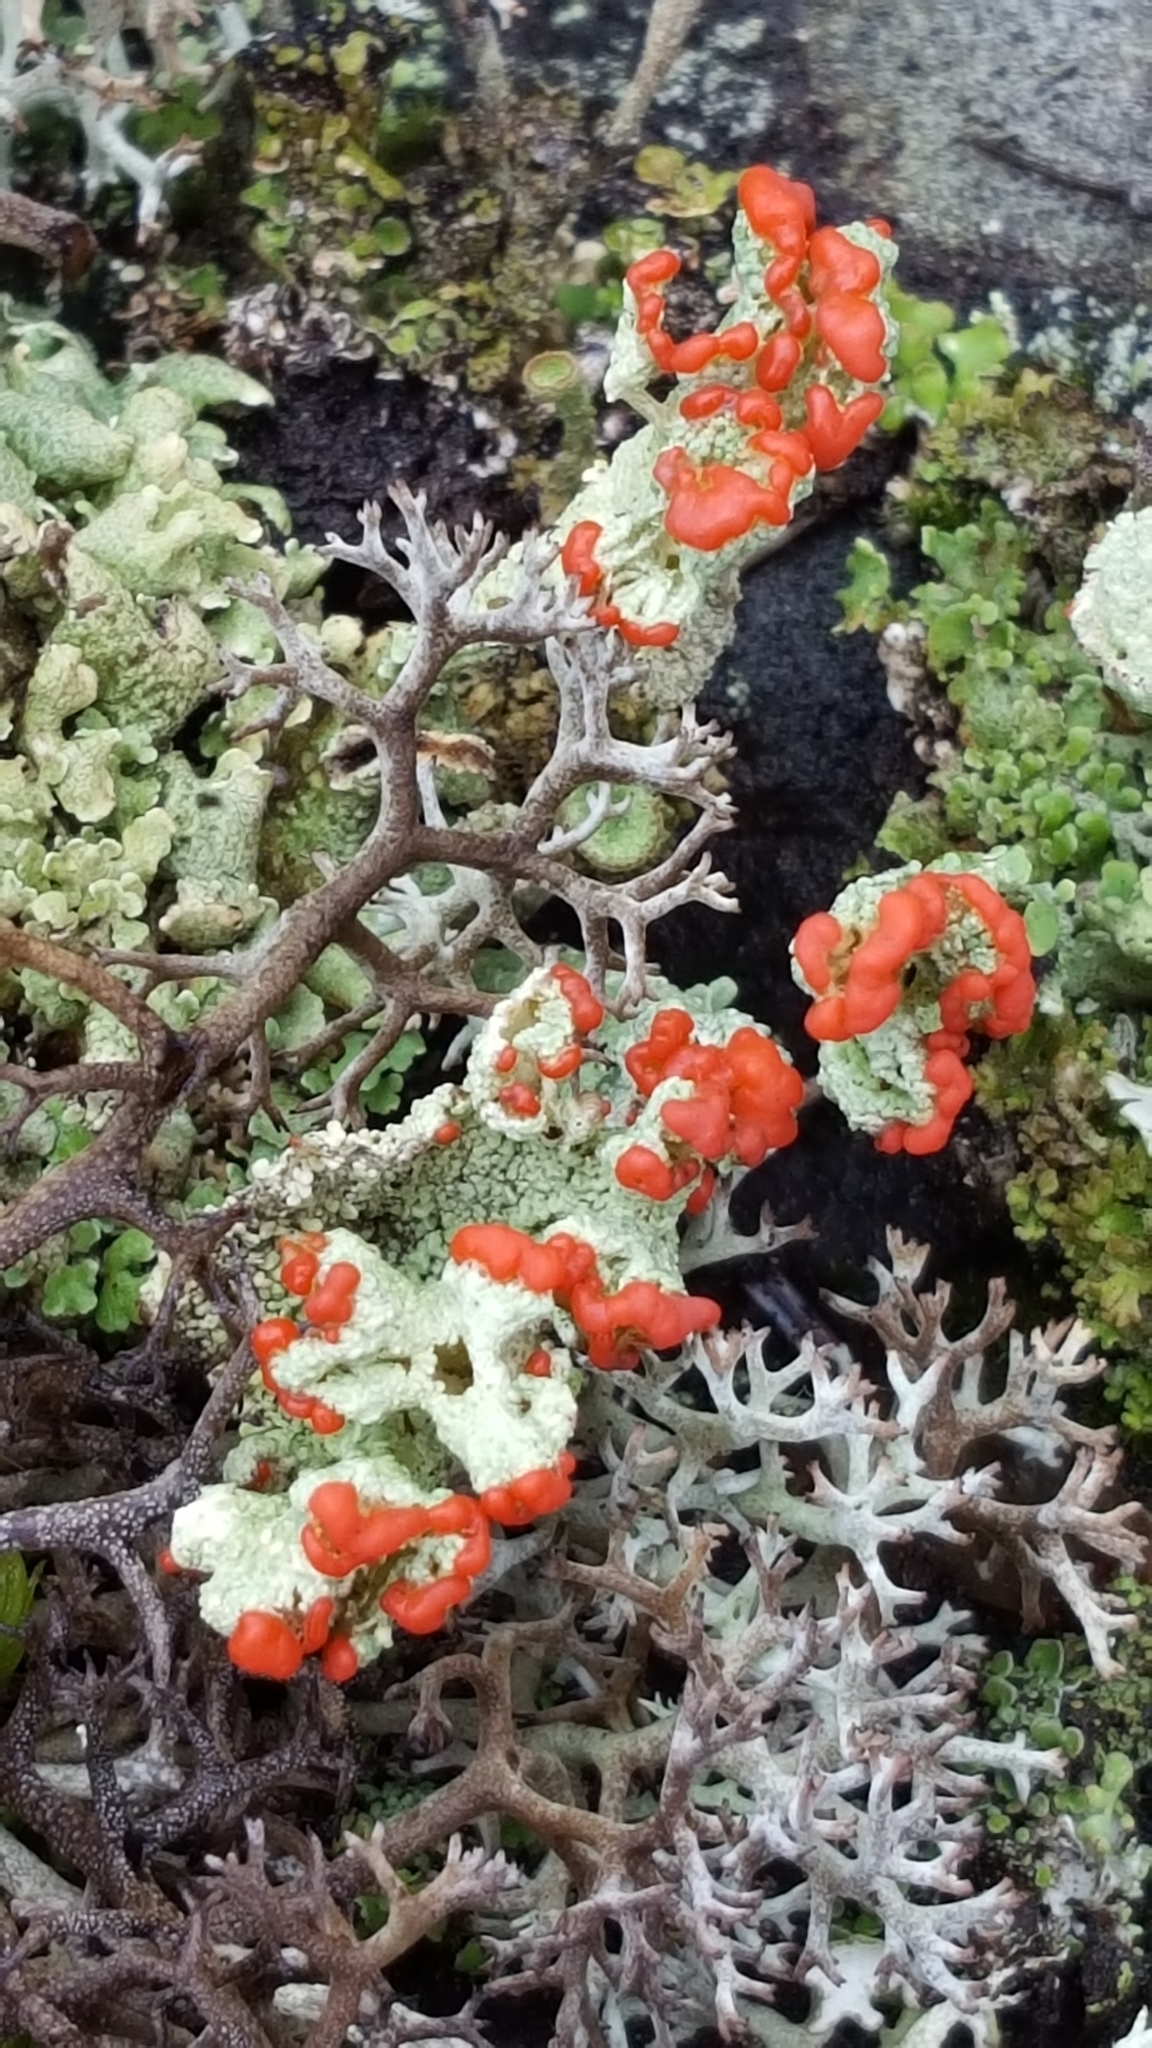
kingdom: Fungi
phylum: Ascomycota
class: Lecanoromycetes
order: Lecanorales
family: Cladoniaceae
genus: Cladonia
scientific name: Cladonia pleurota
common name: Red-fruited pixie cup
